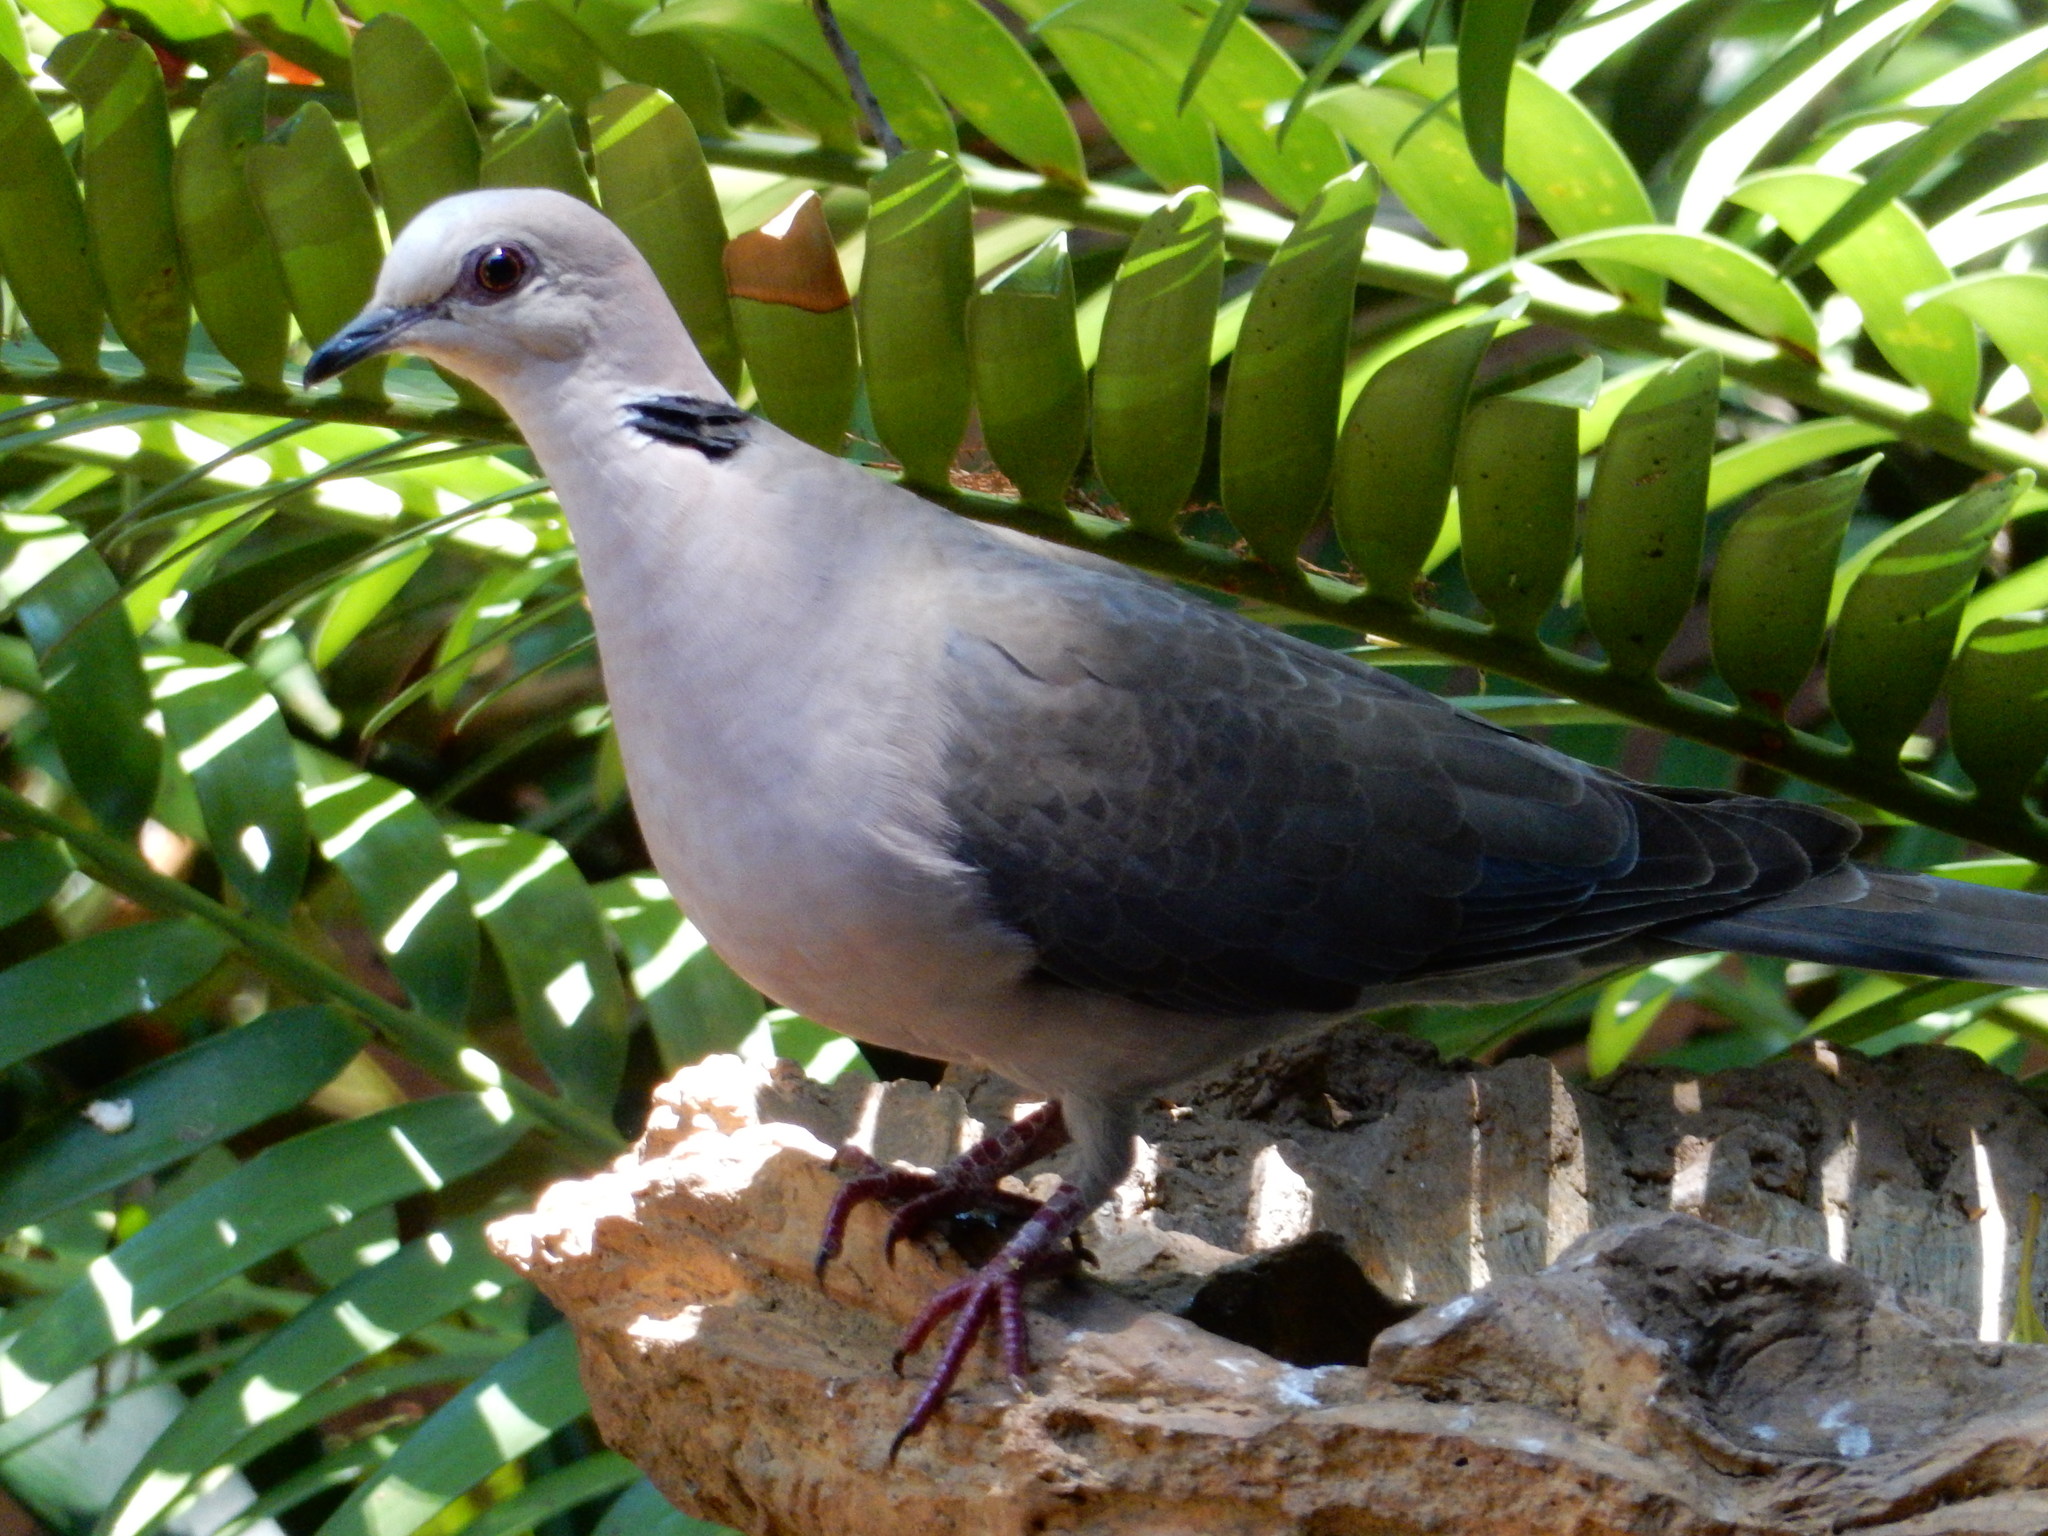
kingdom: Animalia
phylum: Chordata
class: Aves
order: Columbiformes
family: Columbidae
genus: Streptopelia
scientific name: Streptopelia semitorquata
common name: Red-eyed dove
